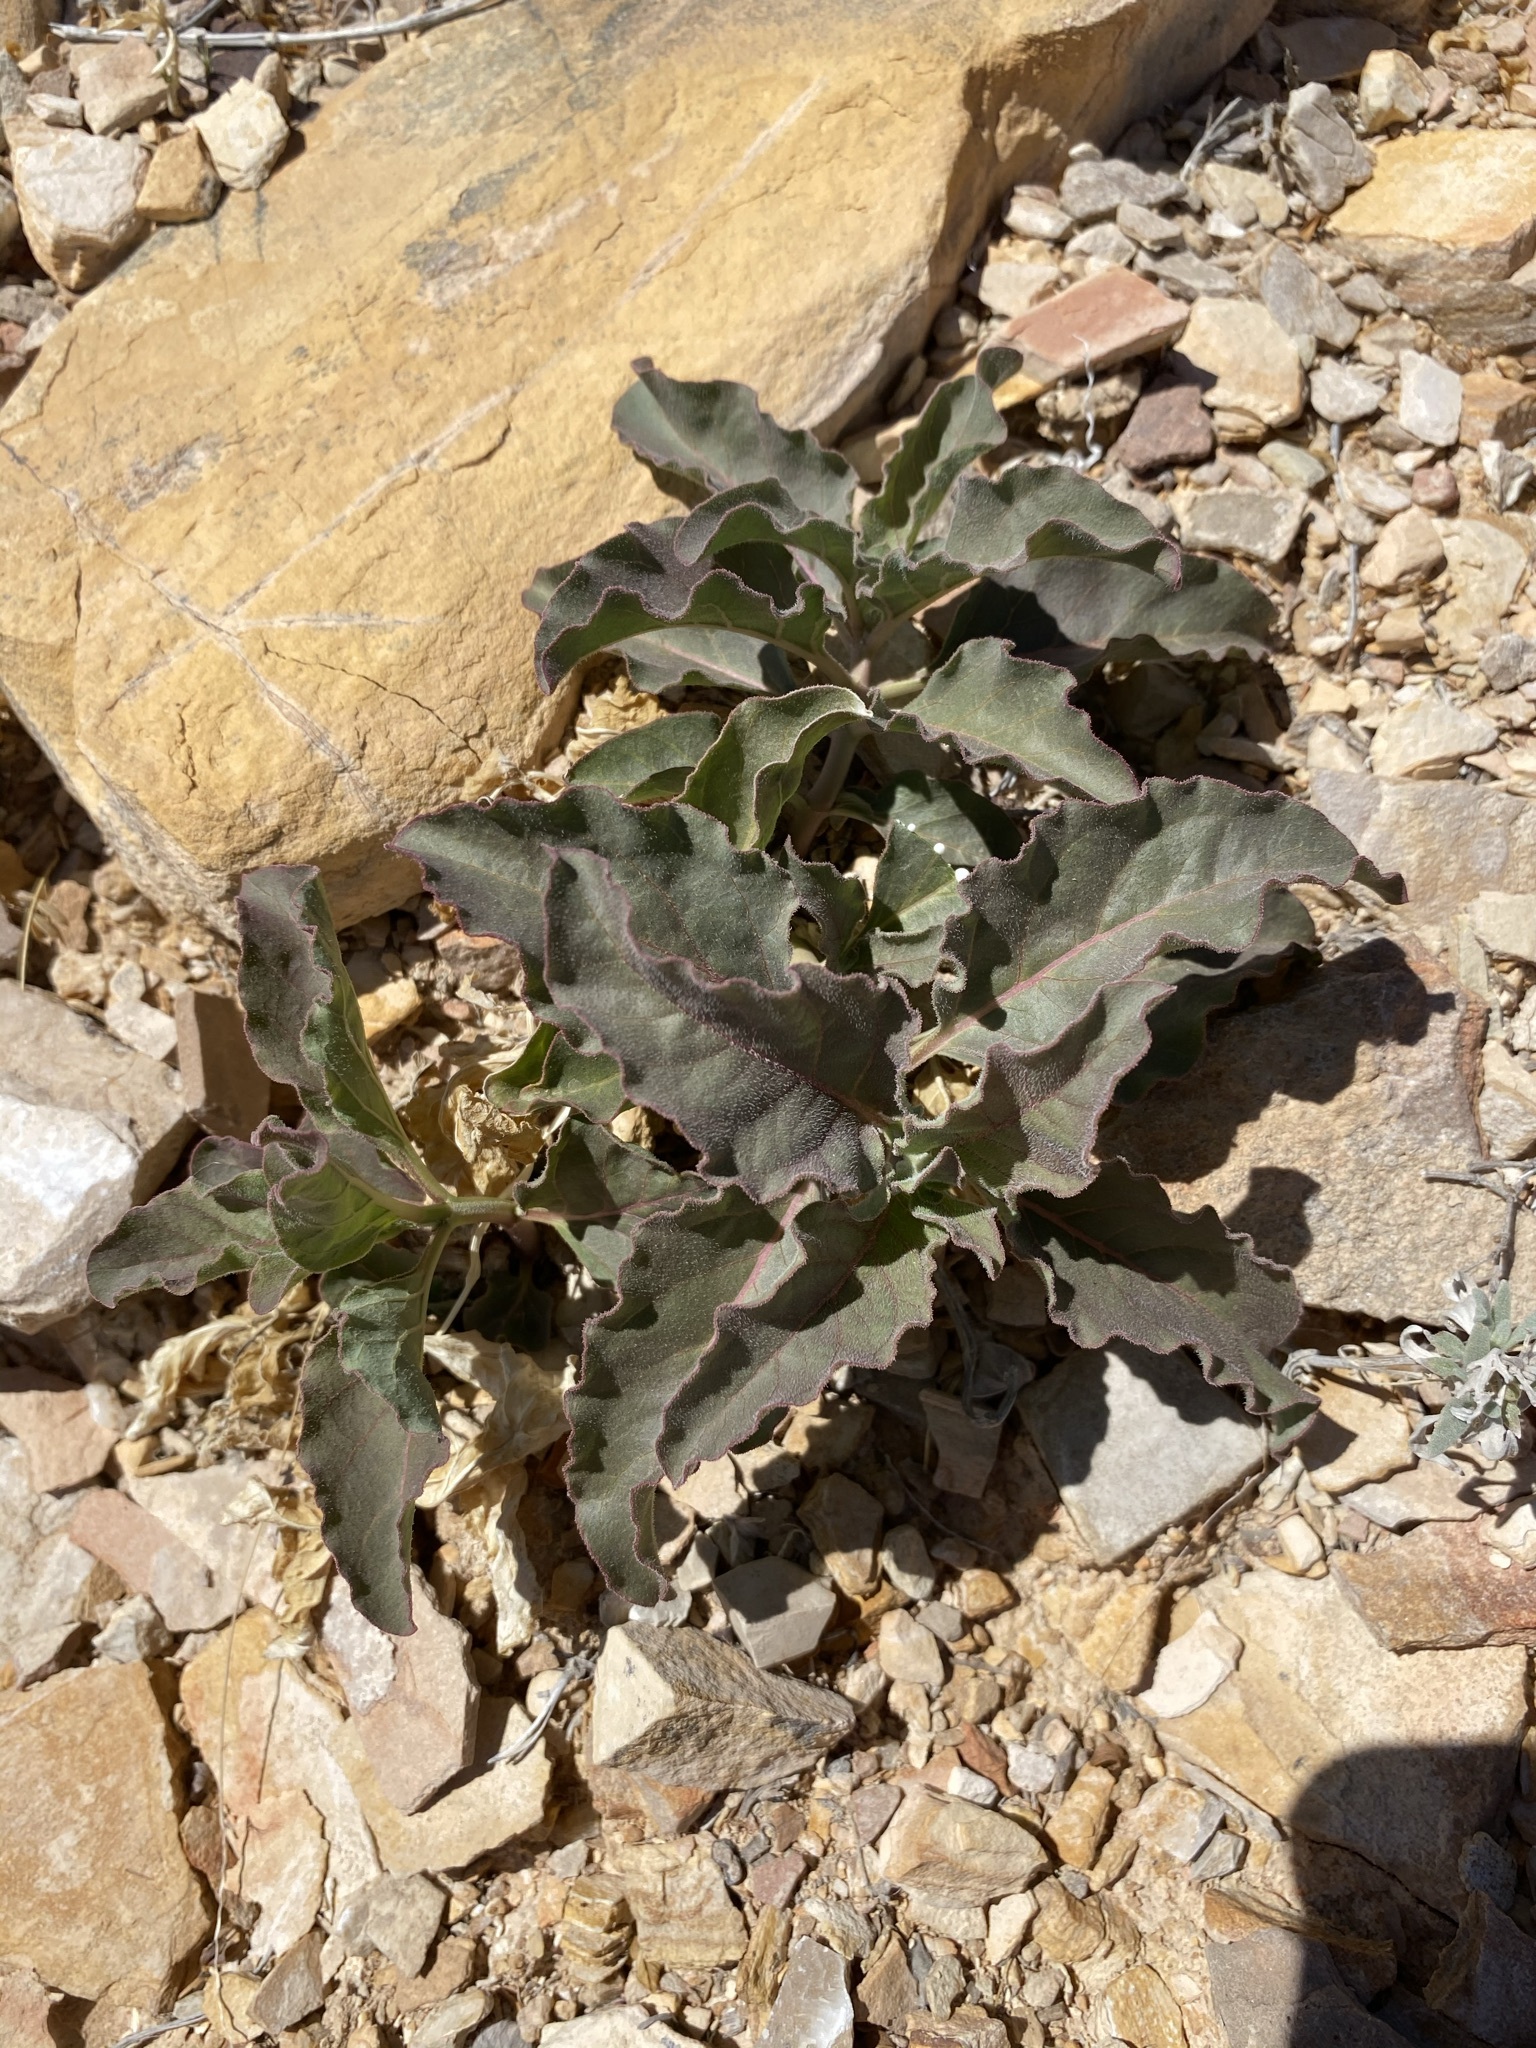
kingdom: Plantae
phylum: Tracheophyta
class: Magnoliopsida
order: Gentianales
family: Apocynaceae
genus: Asclepias
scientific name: Asclepias oenotheroides
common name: Zizotes milkweed
